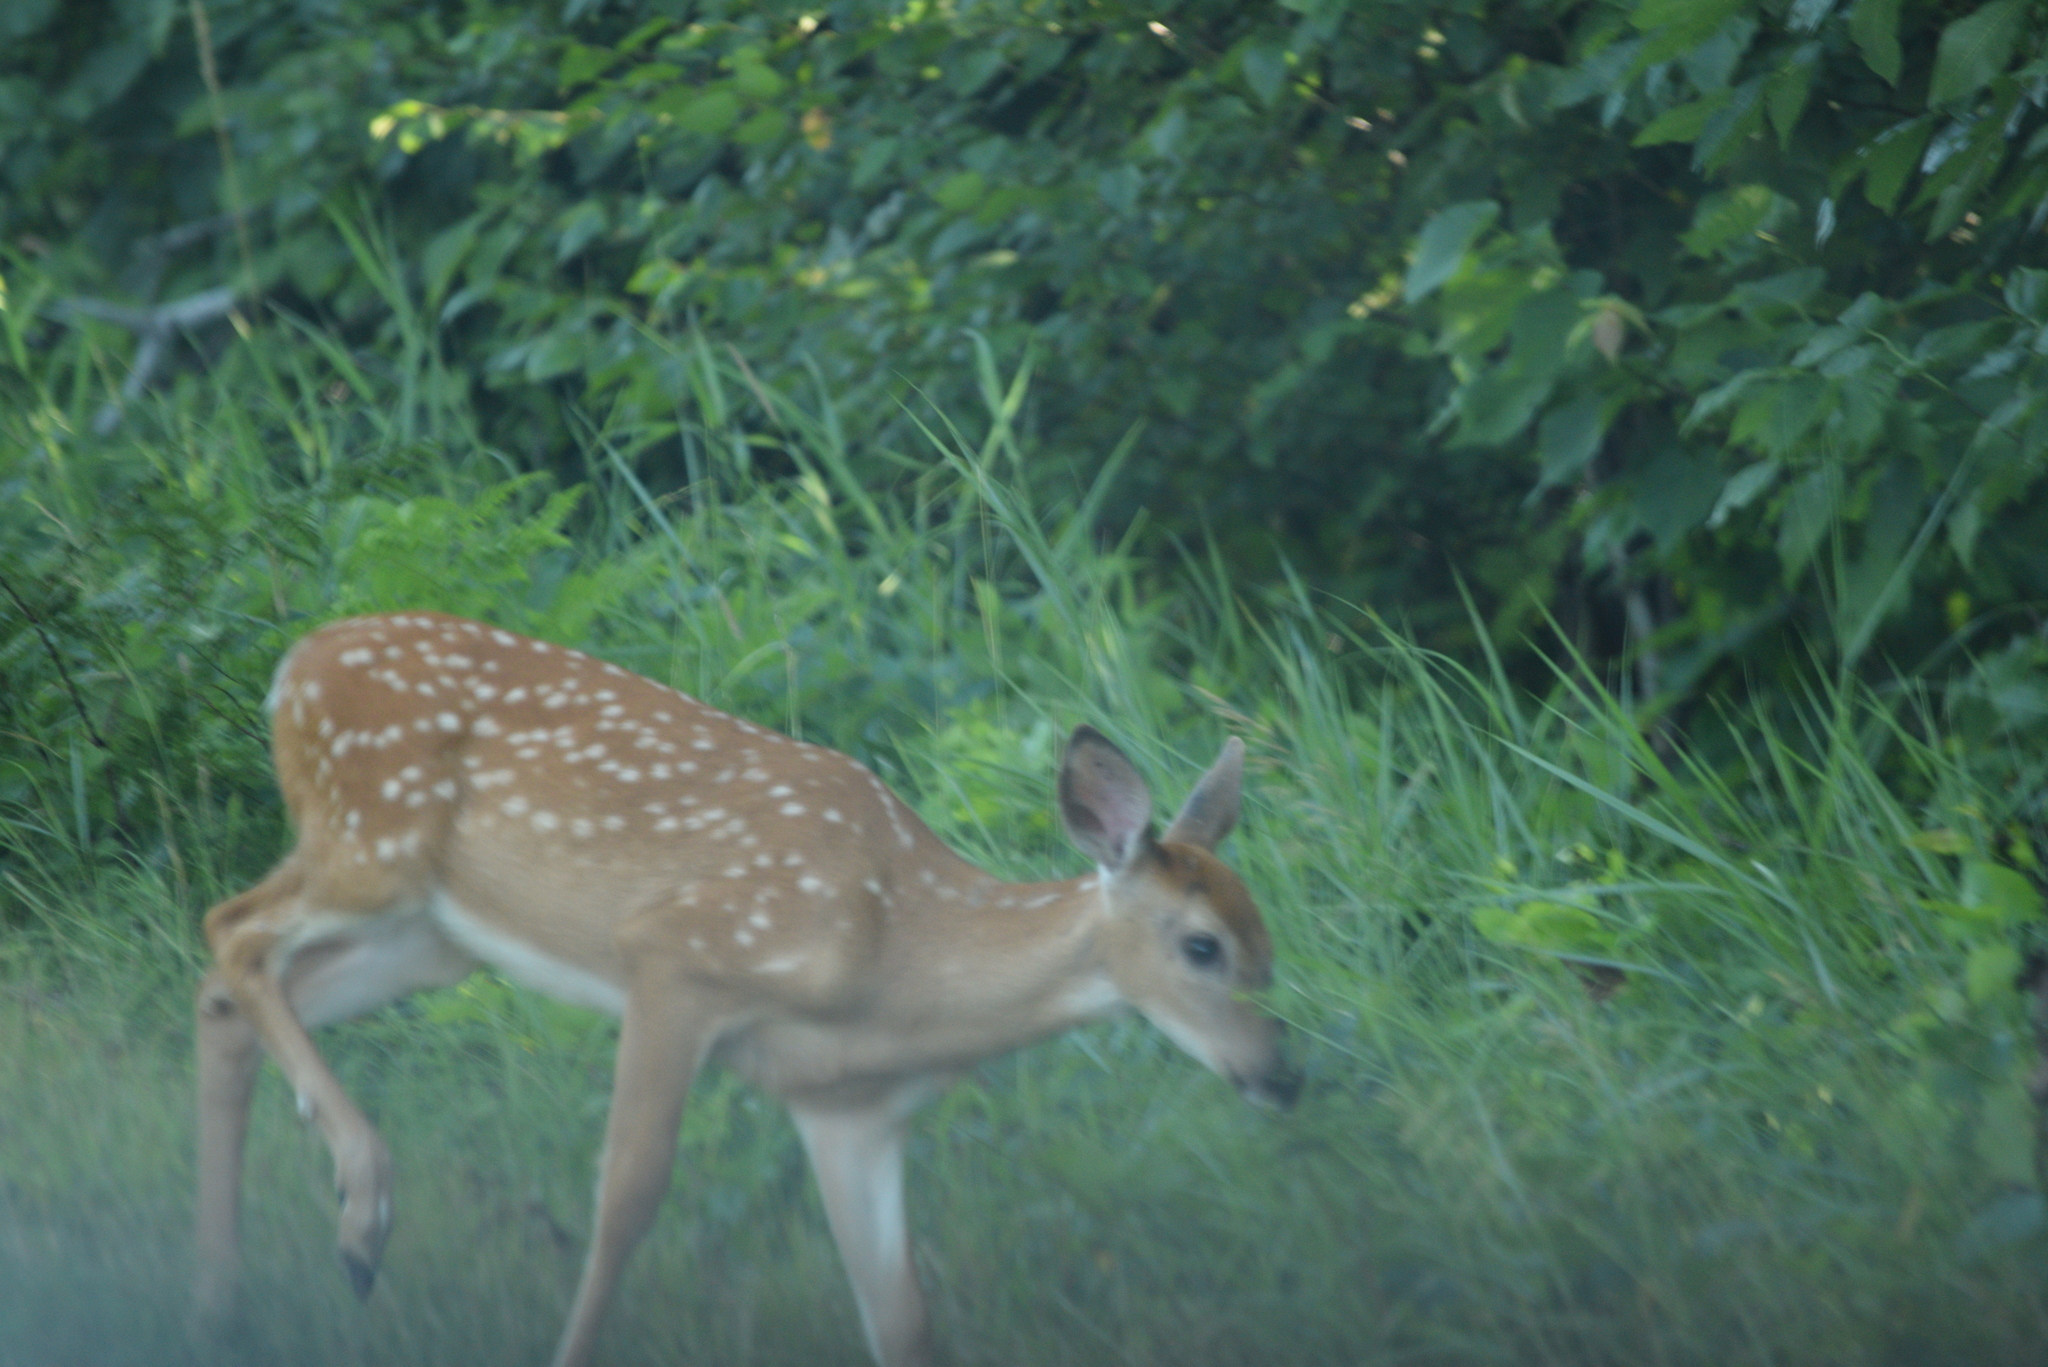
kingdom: Animalia
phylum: Chordata
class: Mammalia
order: Artiodactyla
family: Cervidae
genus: Odocoileus
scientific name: Odocoileus virginianus
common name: White-tailed deer
